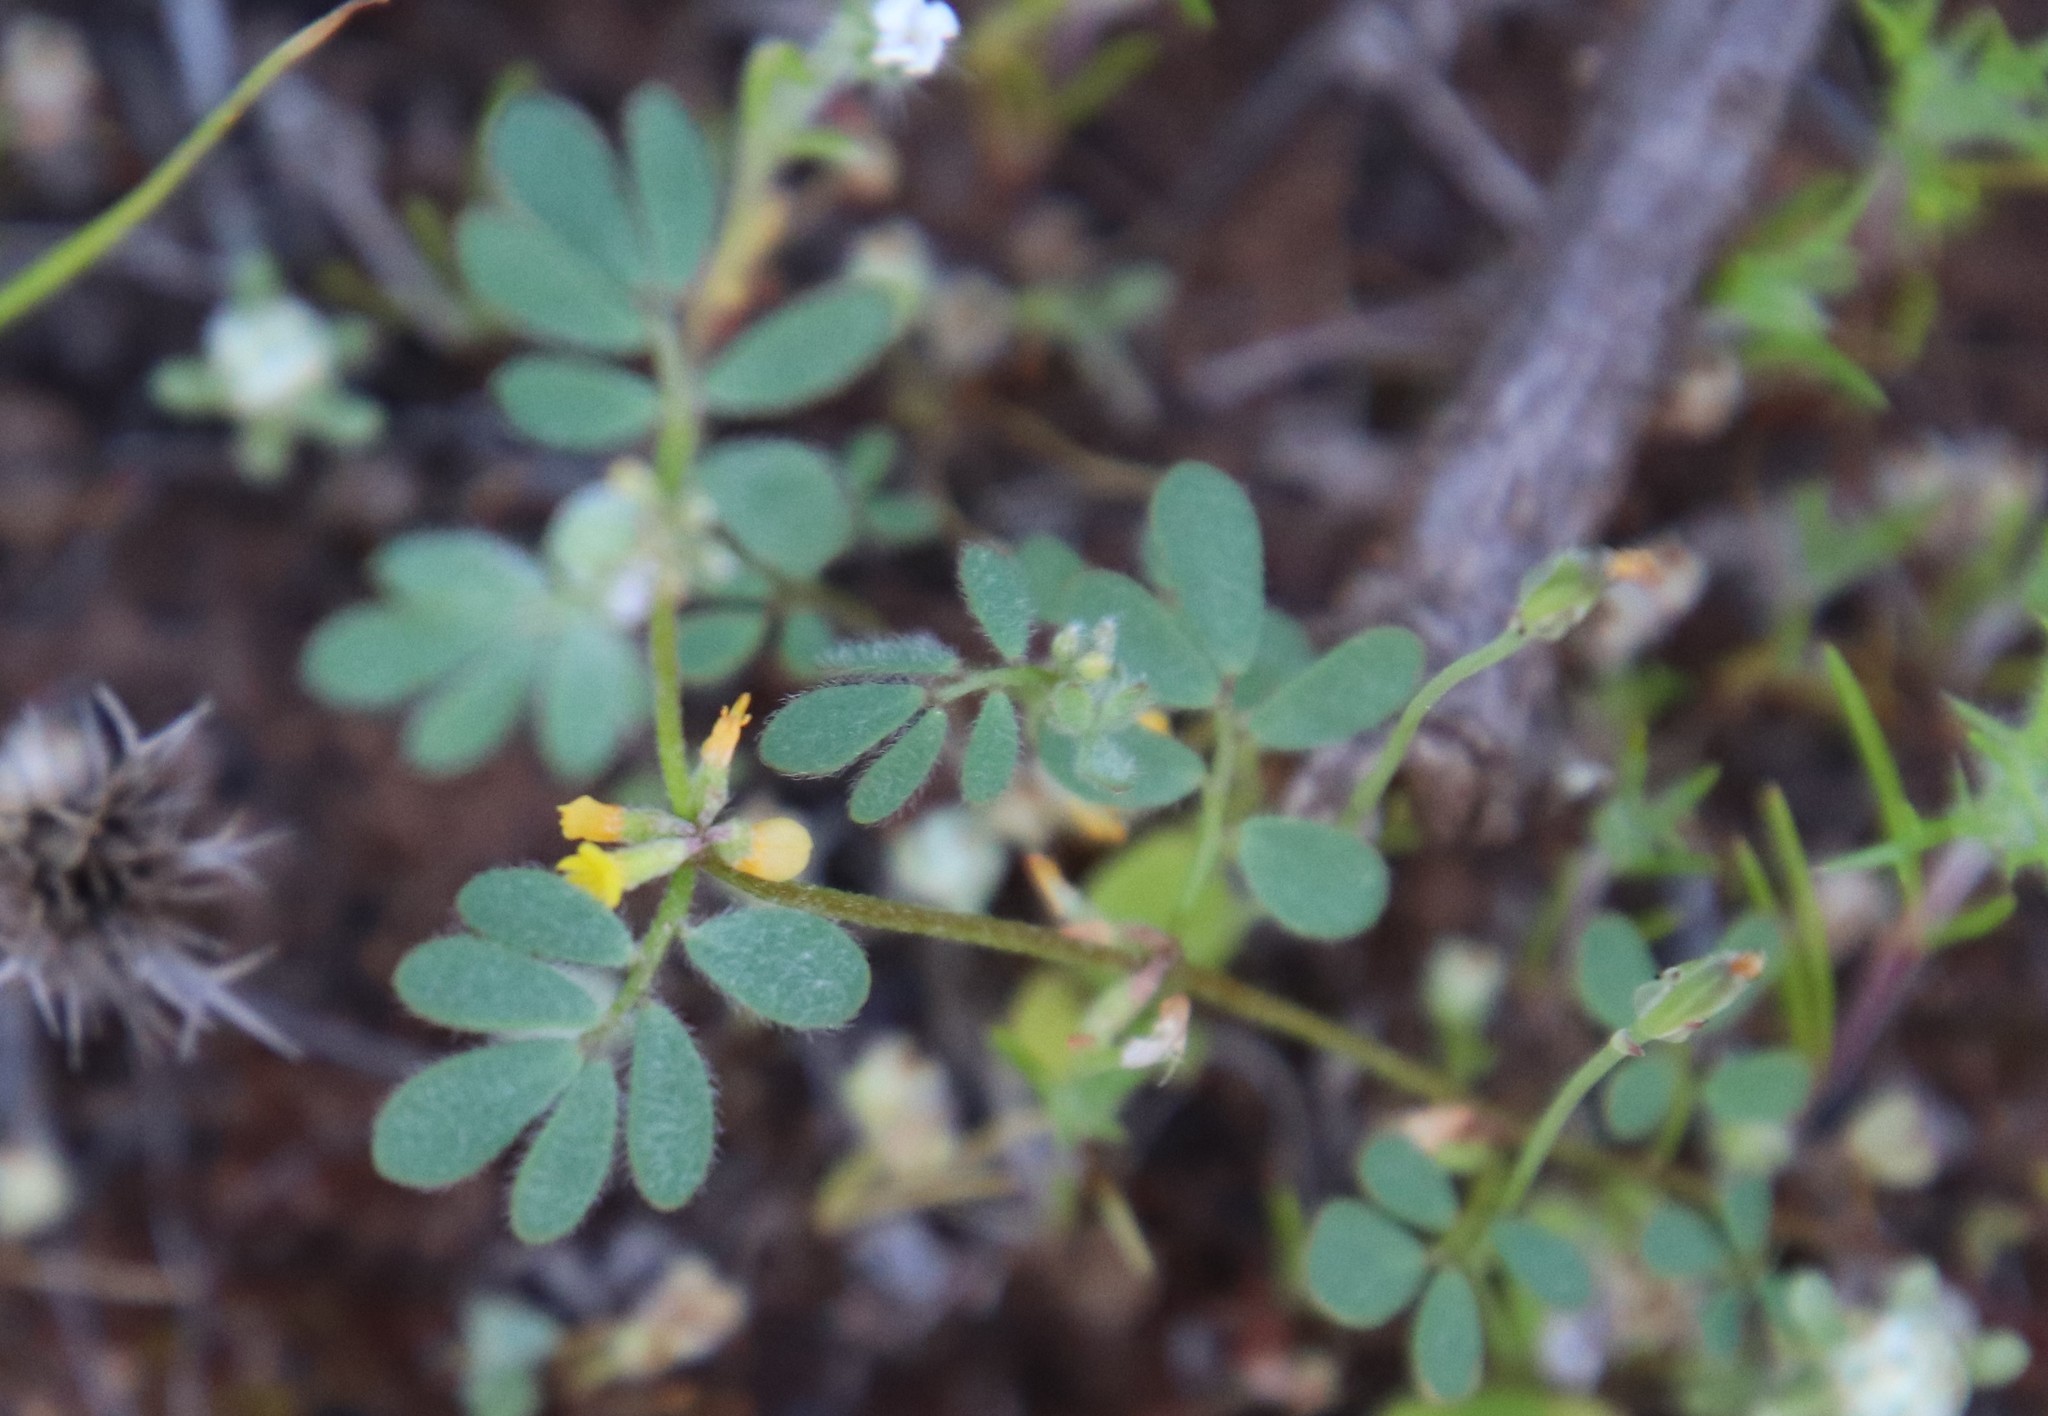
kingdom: Plantae
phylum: Tracheophyta
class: Magnoliopsida
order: Fabales
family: Fabaceae
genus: Acmispon
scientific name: Acmispon micranthus
